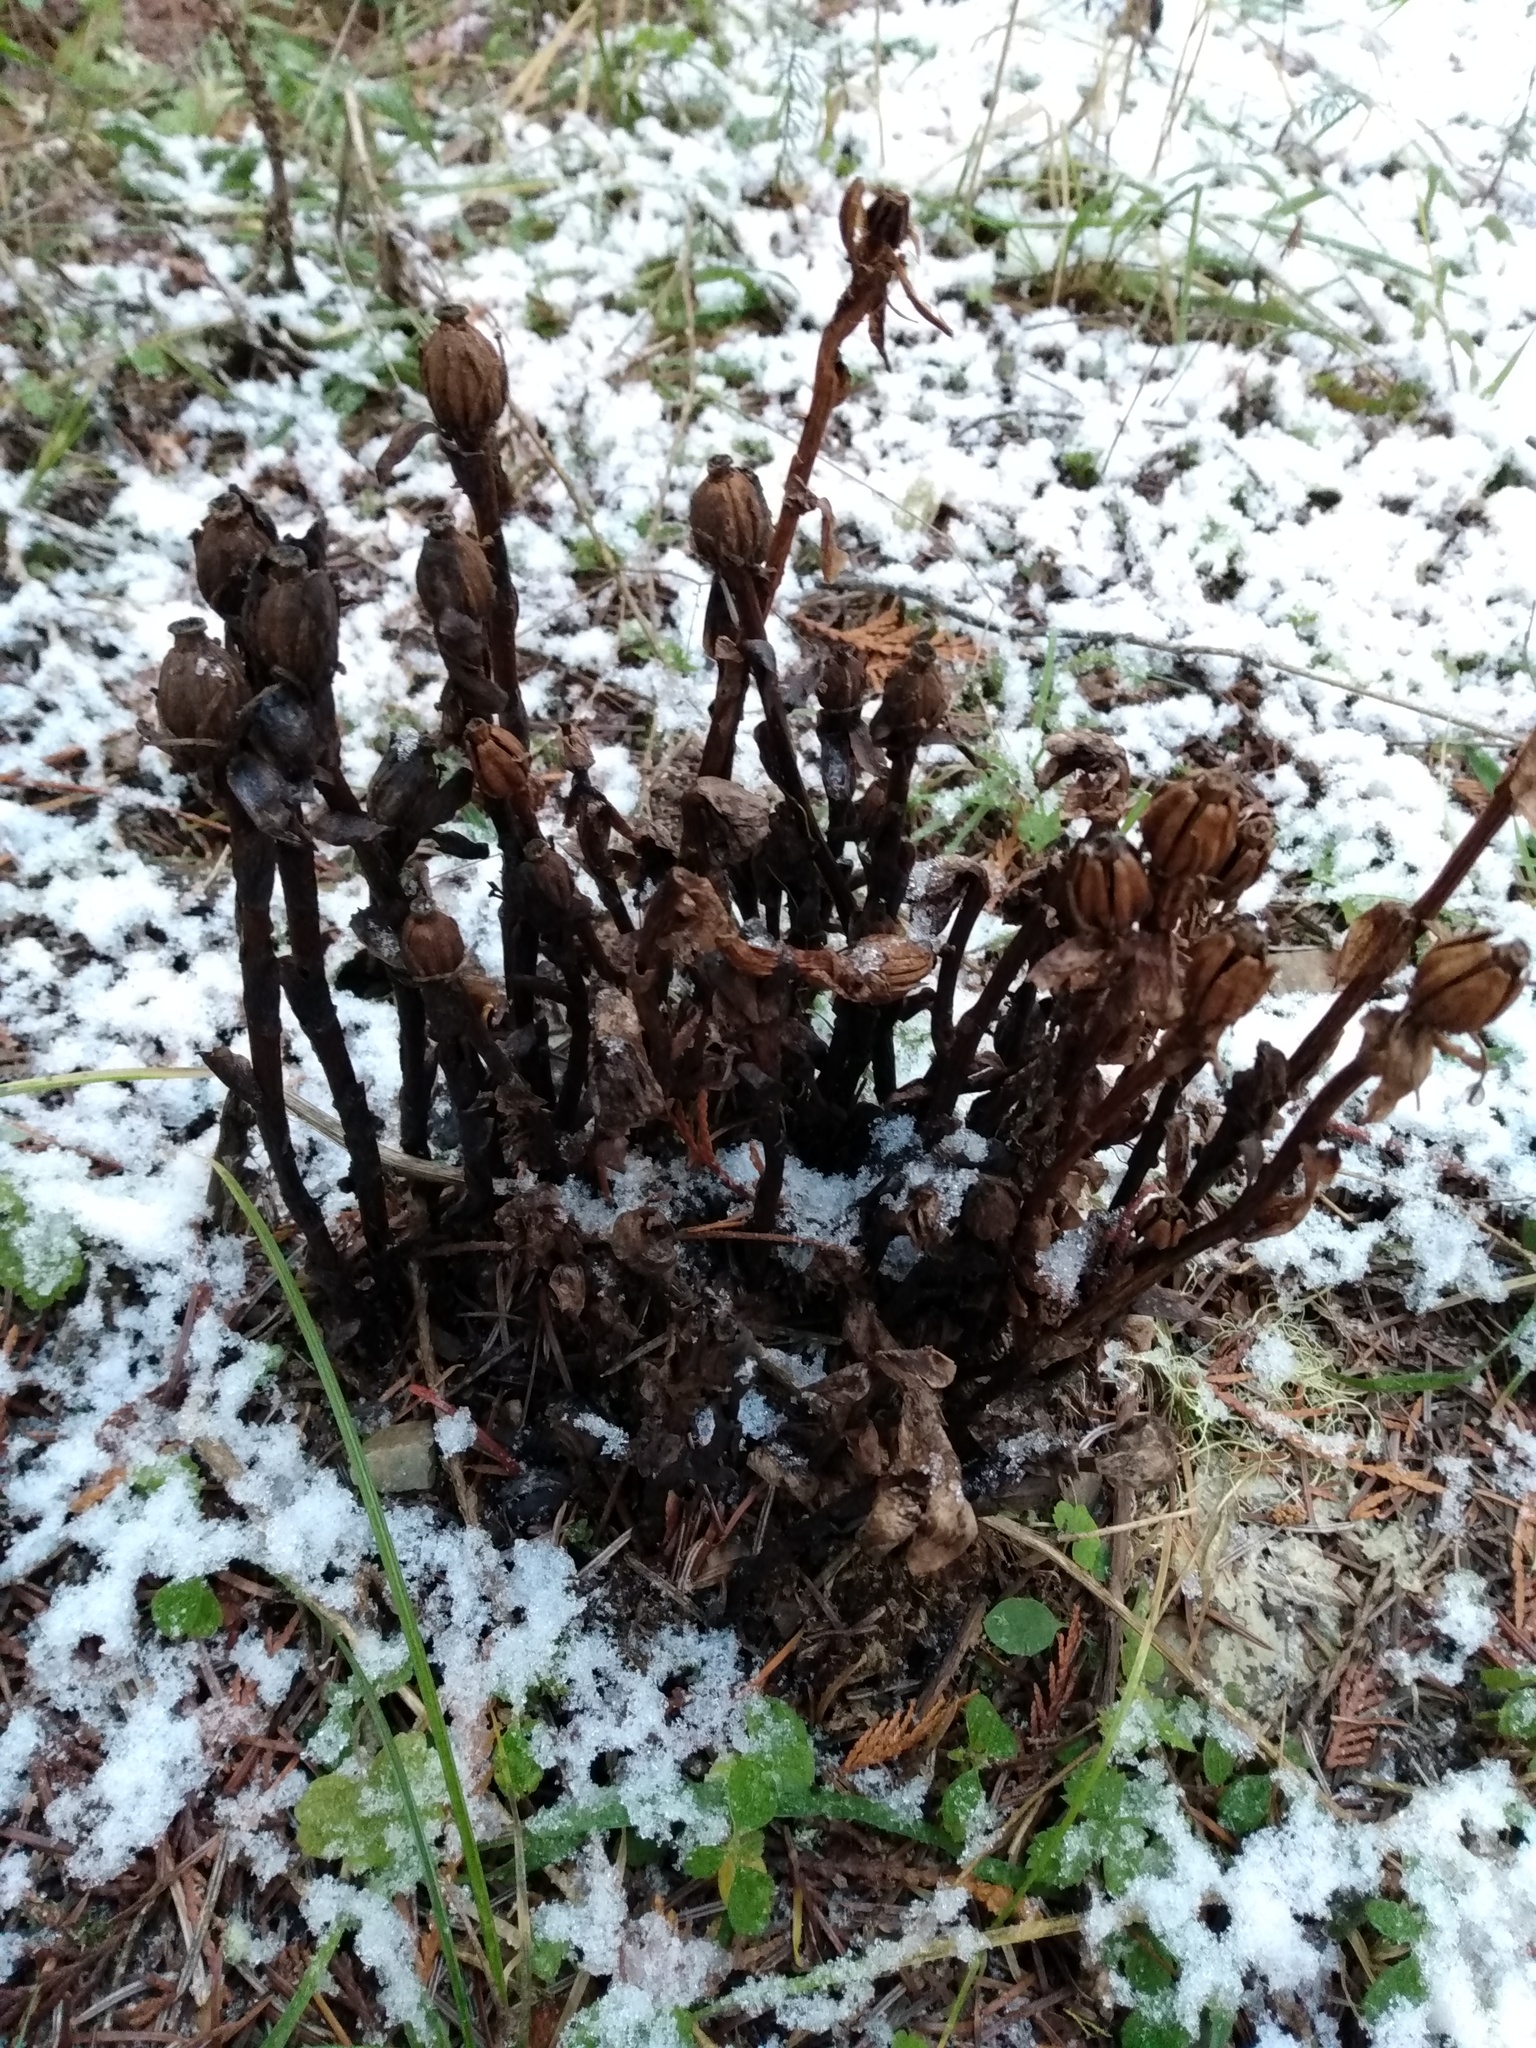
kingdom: Plantae
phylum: Tracheophyta
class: Magnoliopsida
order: Ericales
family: Ericaceae
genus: Monotropa
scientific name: Monotropa uniflora
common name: Convulsion root
